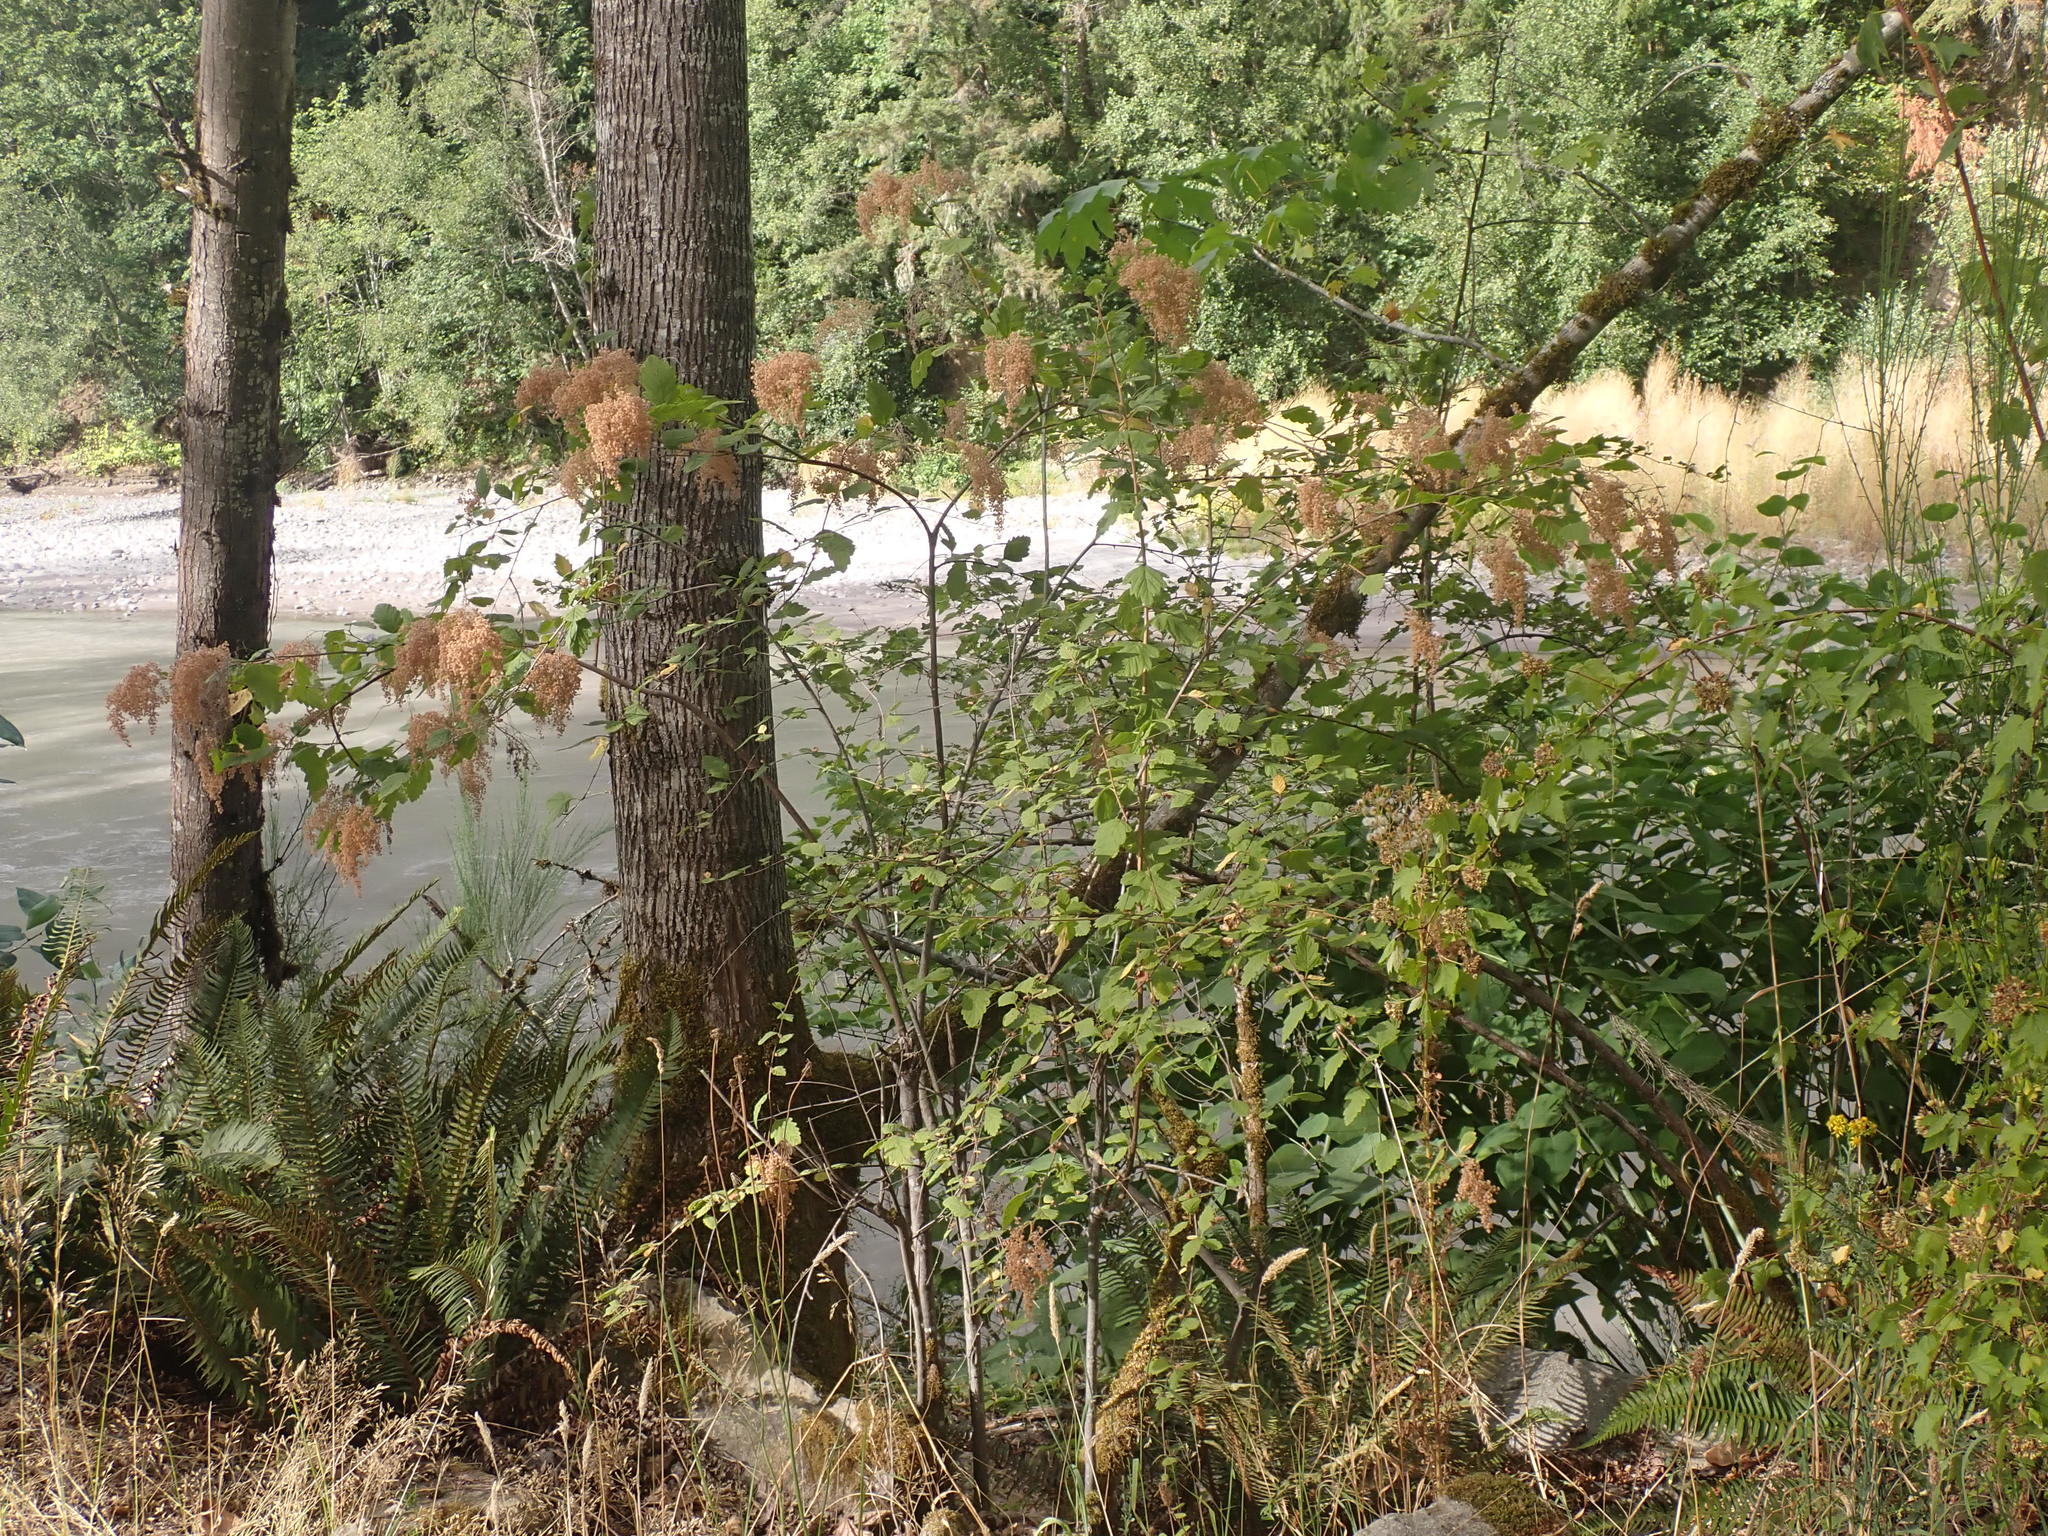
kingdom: Plantae
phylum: Tracheophyta
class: Magnoliopsida
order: Rosales
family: Rosaceae
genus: Holodiscus
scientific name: Holodiscus discolor
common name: Oceanspray
